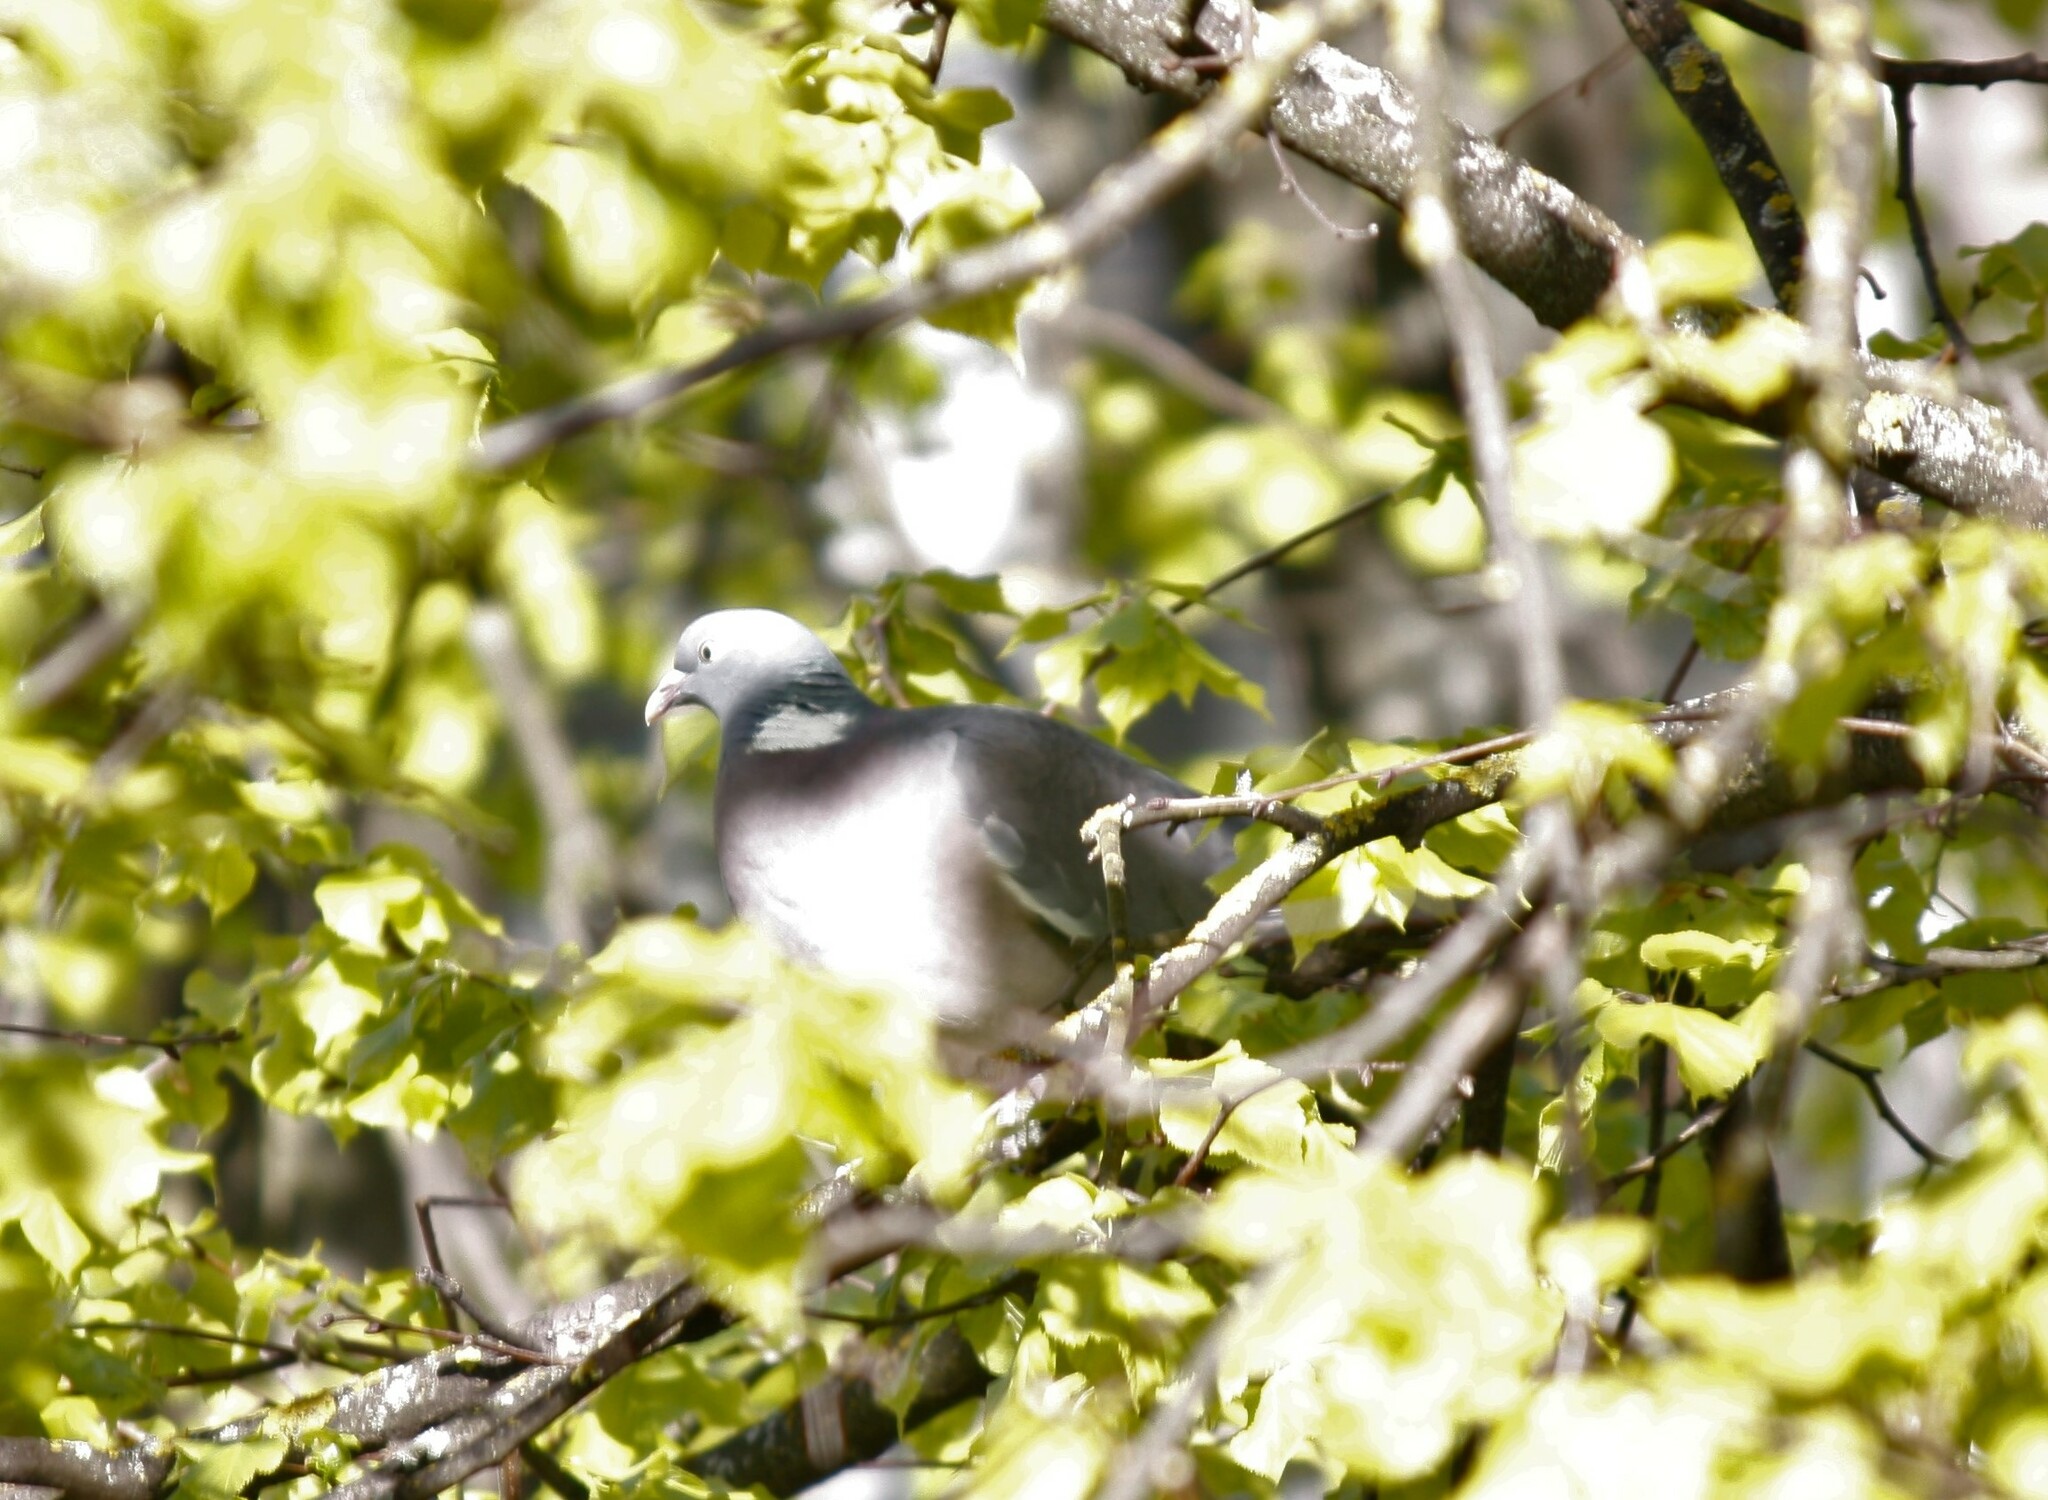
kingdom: Animalia
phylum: Chordata
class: Aves
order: Columbiformes
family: Columbidae
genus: Columba
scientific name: Columba palumbus
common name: Common wood pigeon
